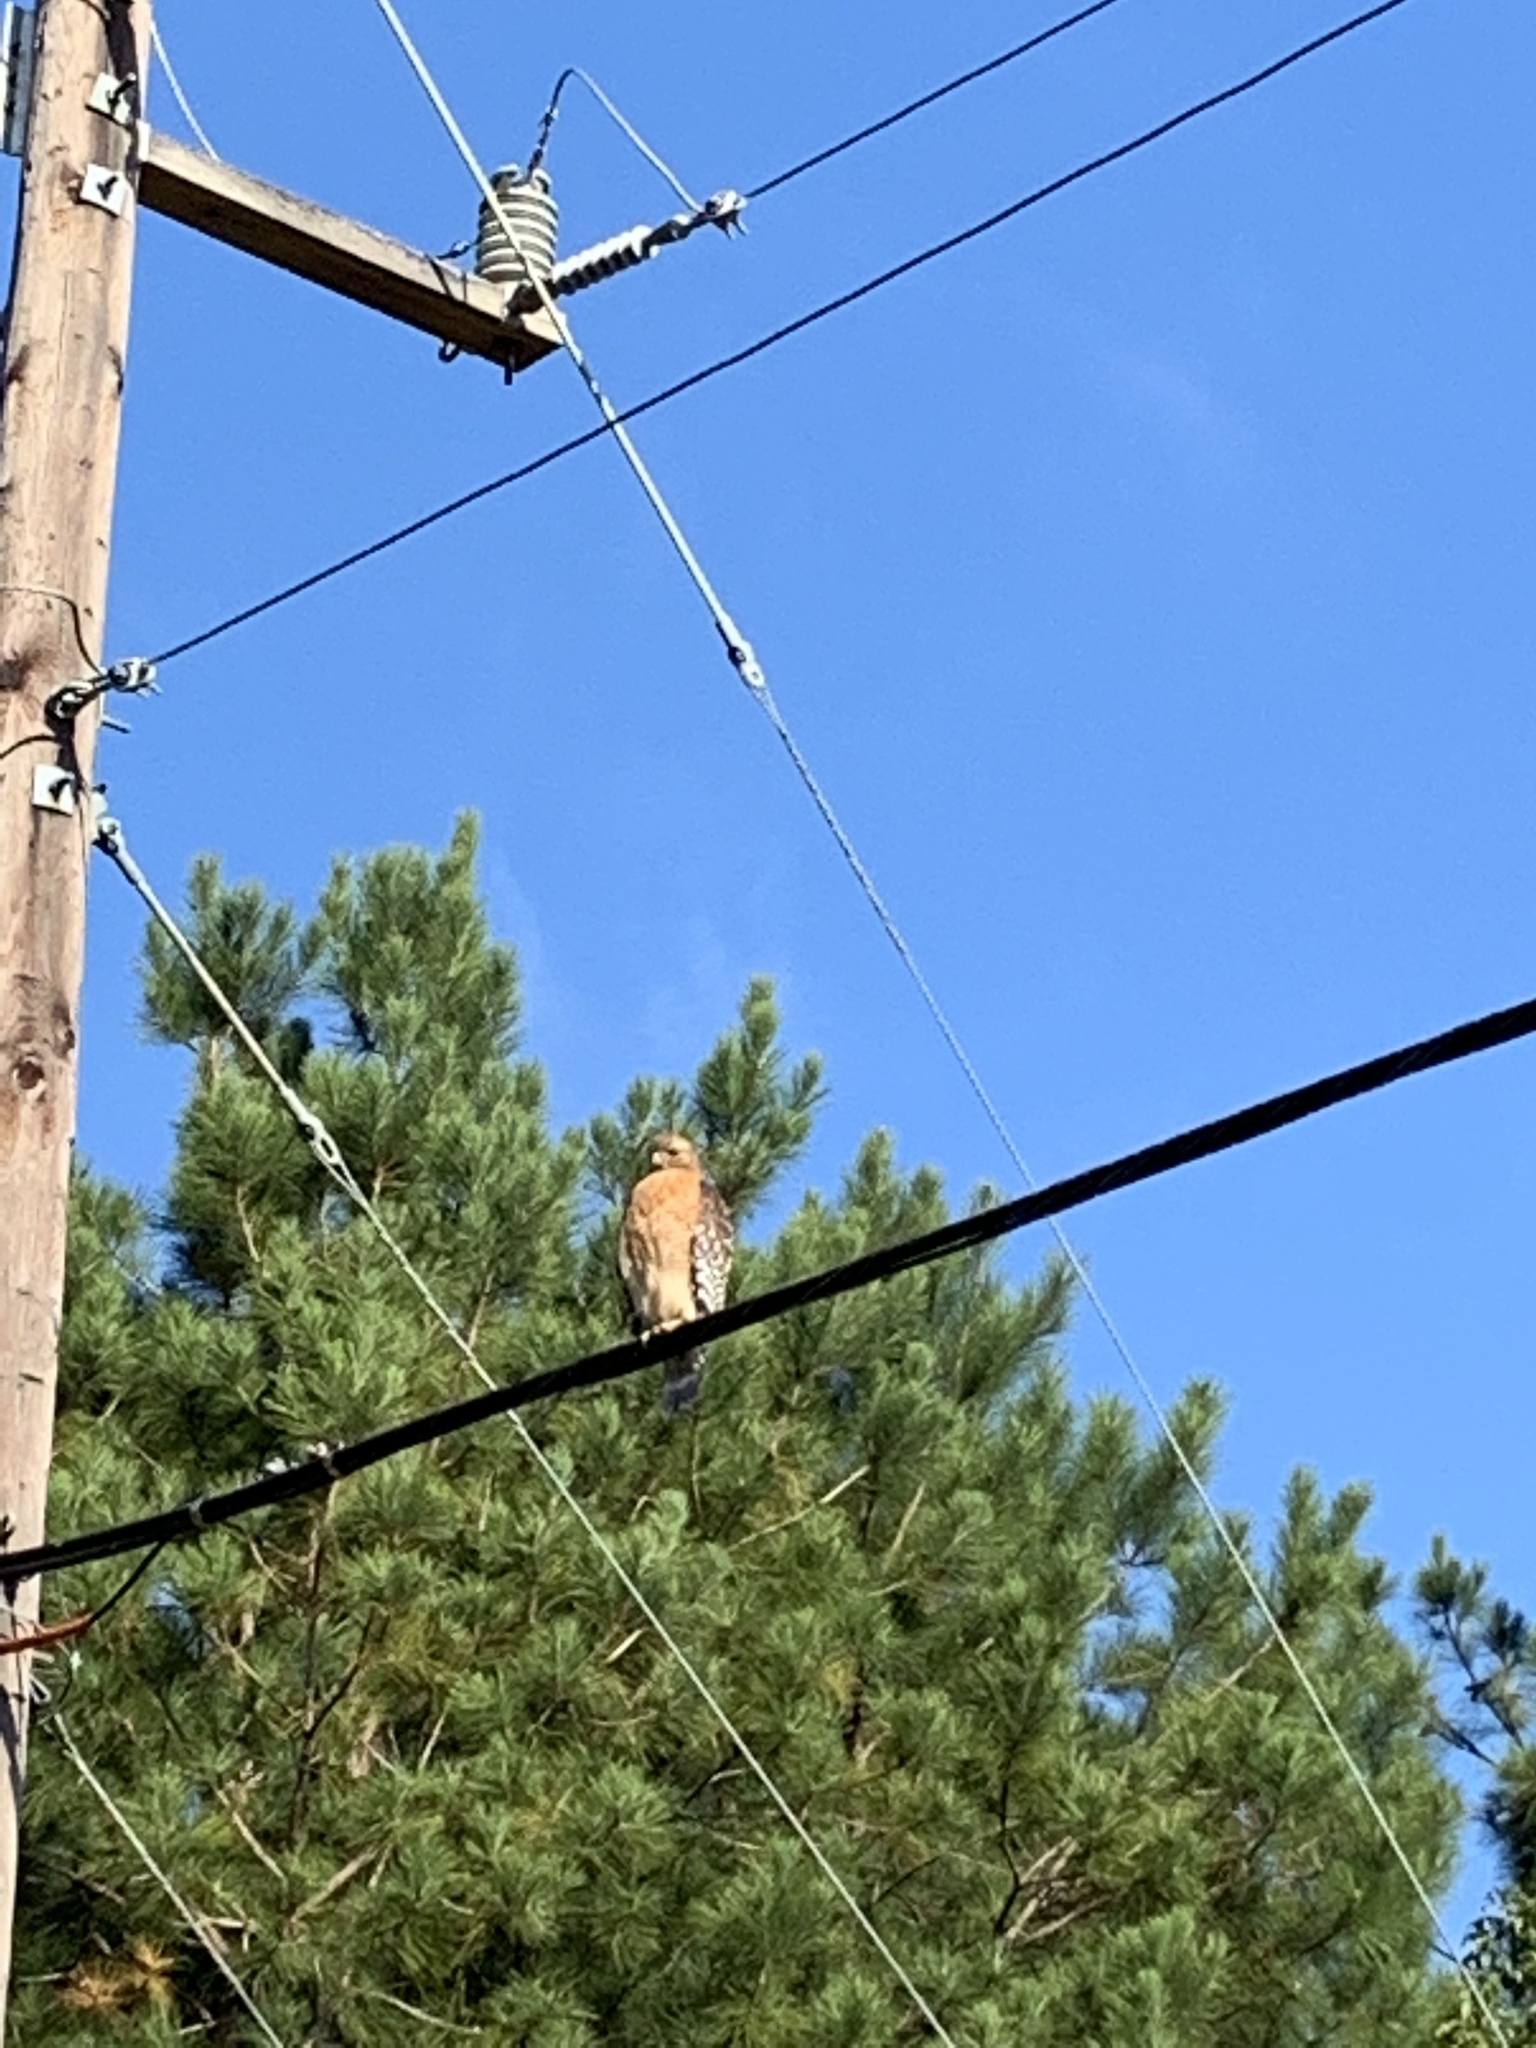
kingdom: Animalia
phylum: Chordata
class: Aves
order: Accipitriformes
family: Accipitridae
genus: Buteo
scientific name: Buteo lineatus
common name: Red-shouldered hawk
